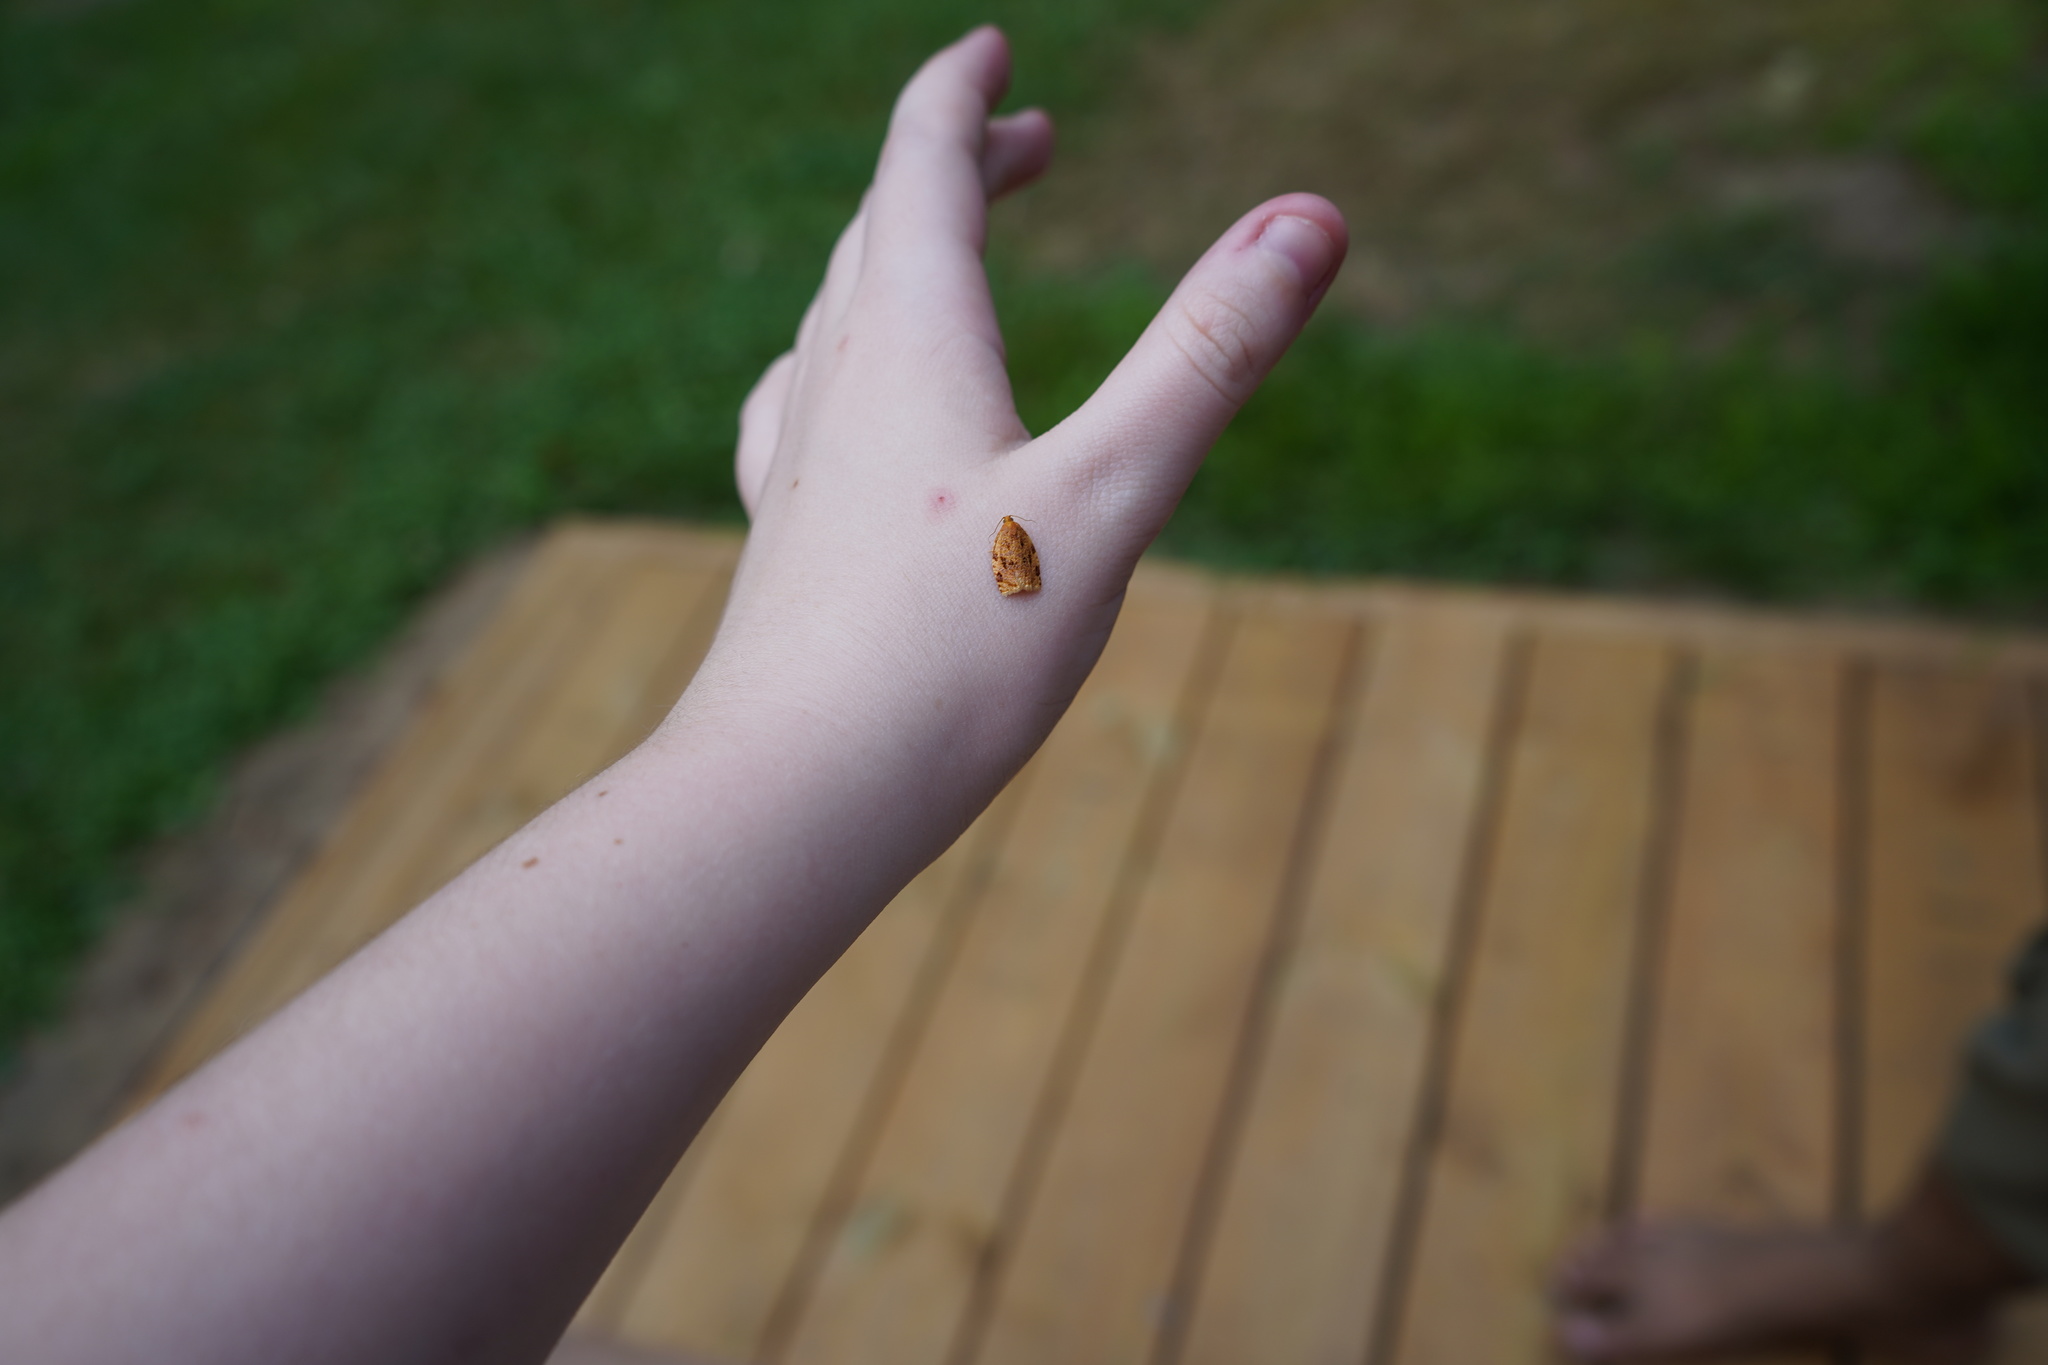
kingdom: Animalia
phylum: Arthropoda
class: Insecta
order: Lepidoptera
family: Tortricidae
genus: Archips
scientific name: Archips cerasivorana
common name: Uglynest caterpillar
